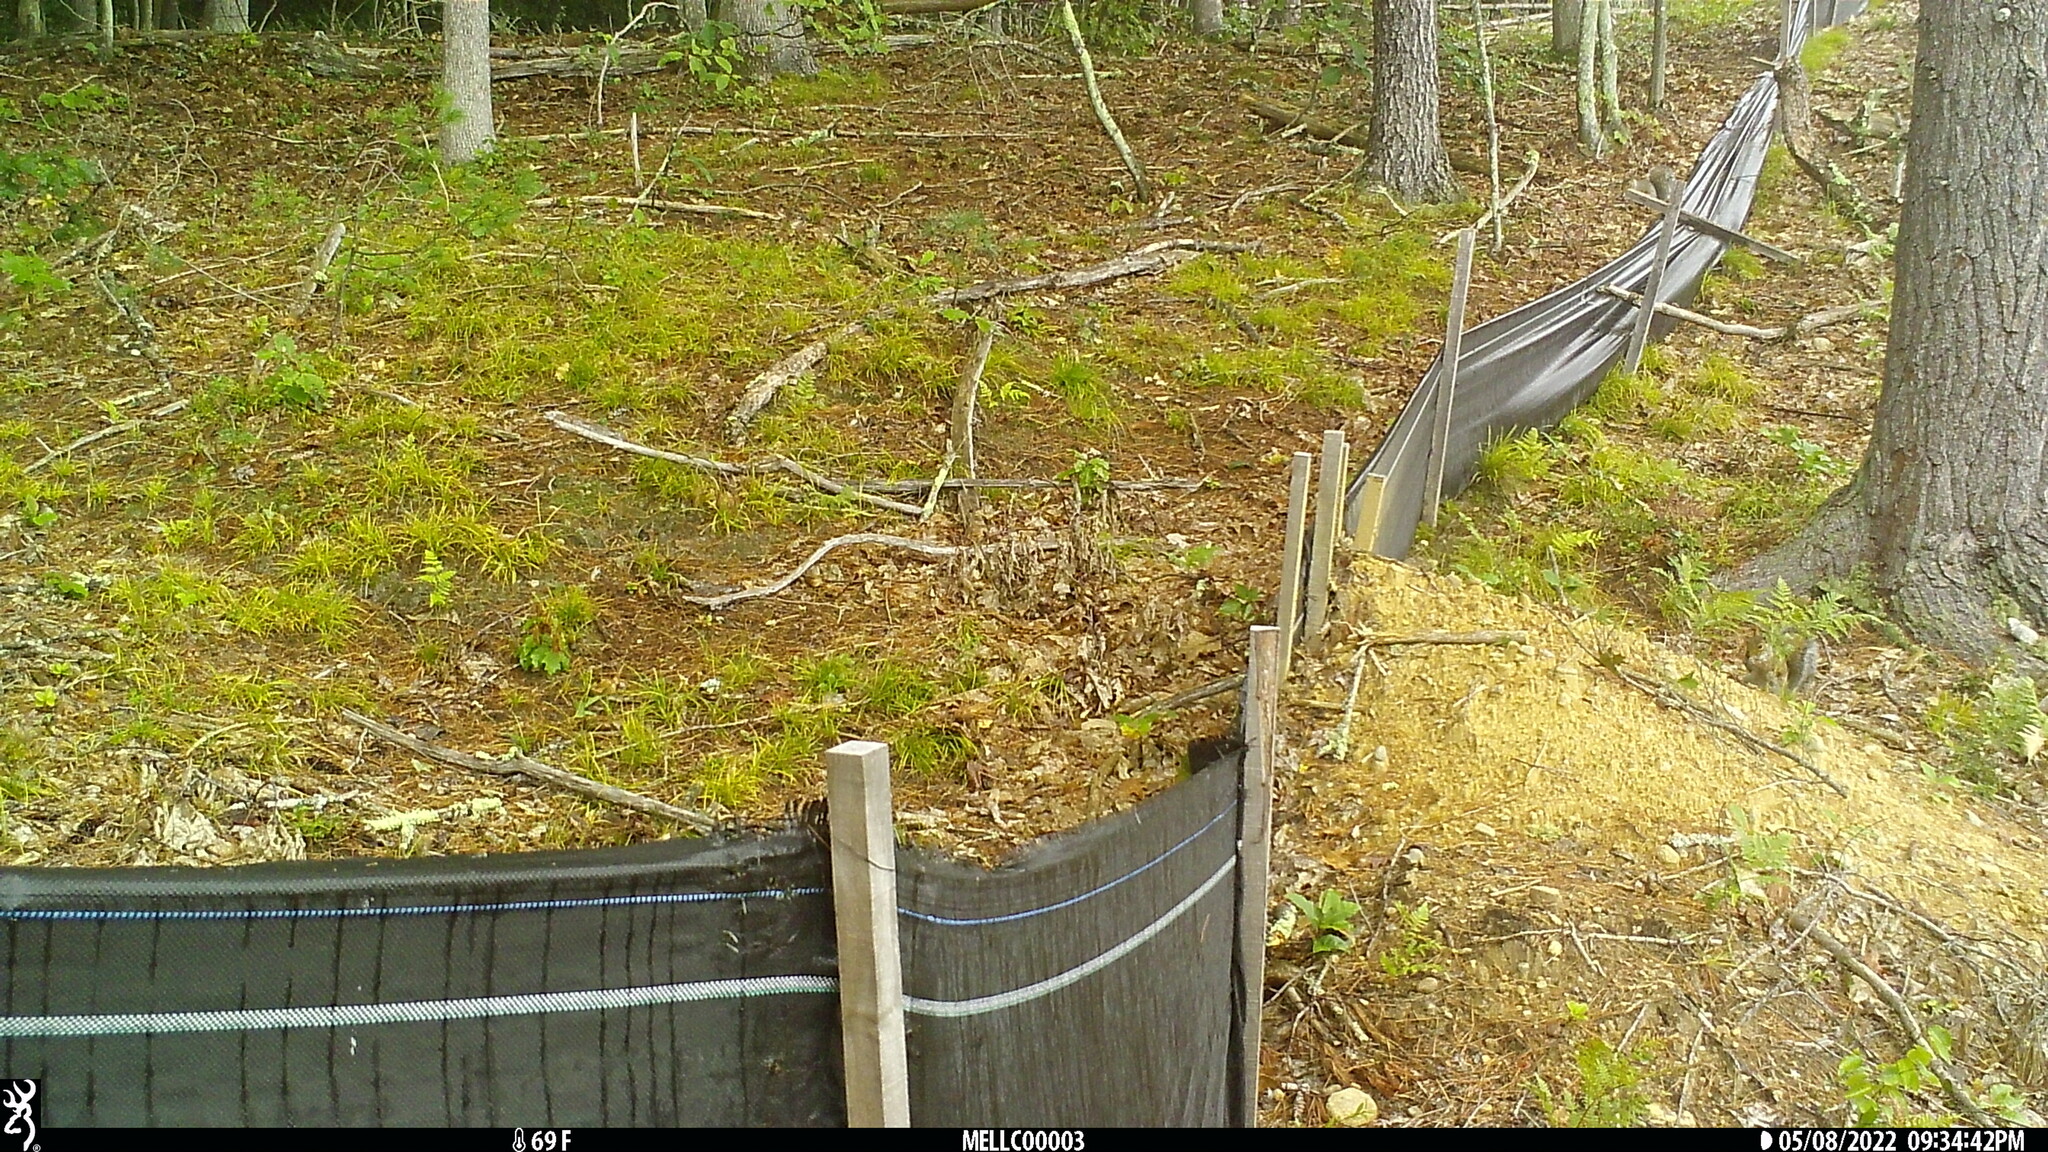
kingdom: Animalia
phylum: Chordata
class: Mammalia
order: Rodentia
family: Sciuridae
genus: Sciurus
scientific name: Sciurus carolinensis
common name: Eastern gray squirrel
